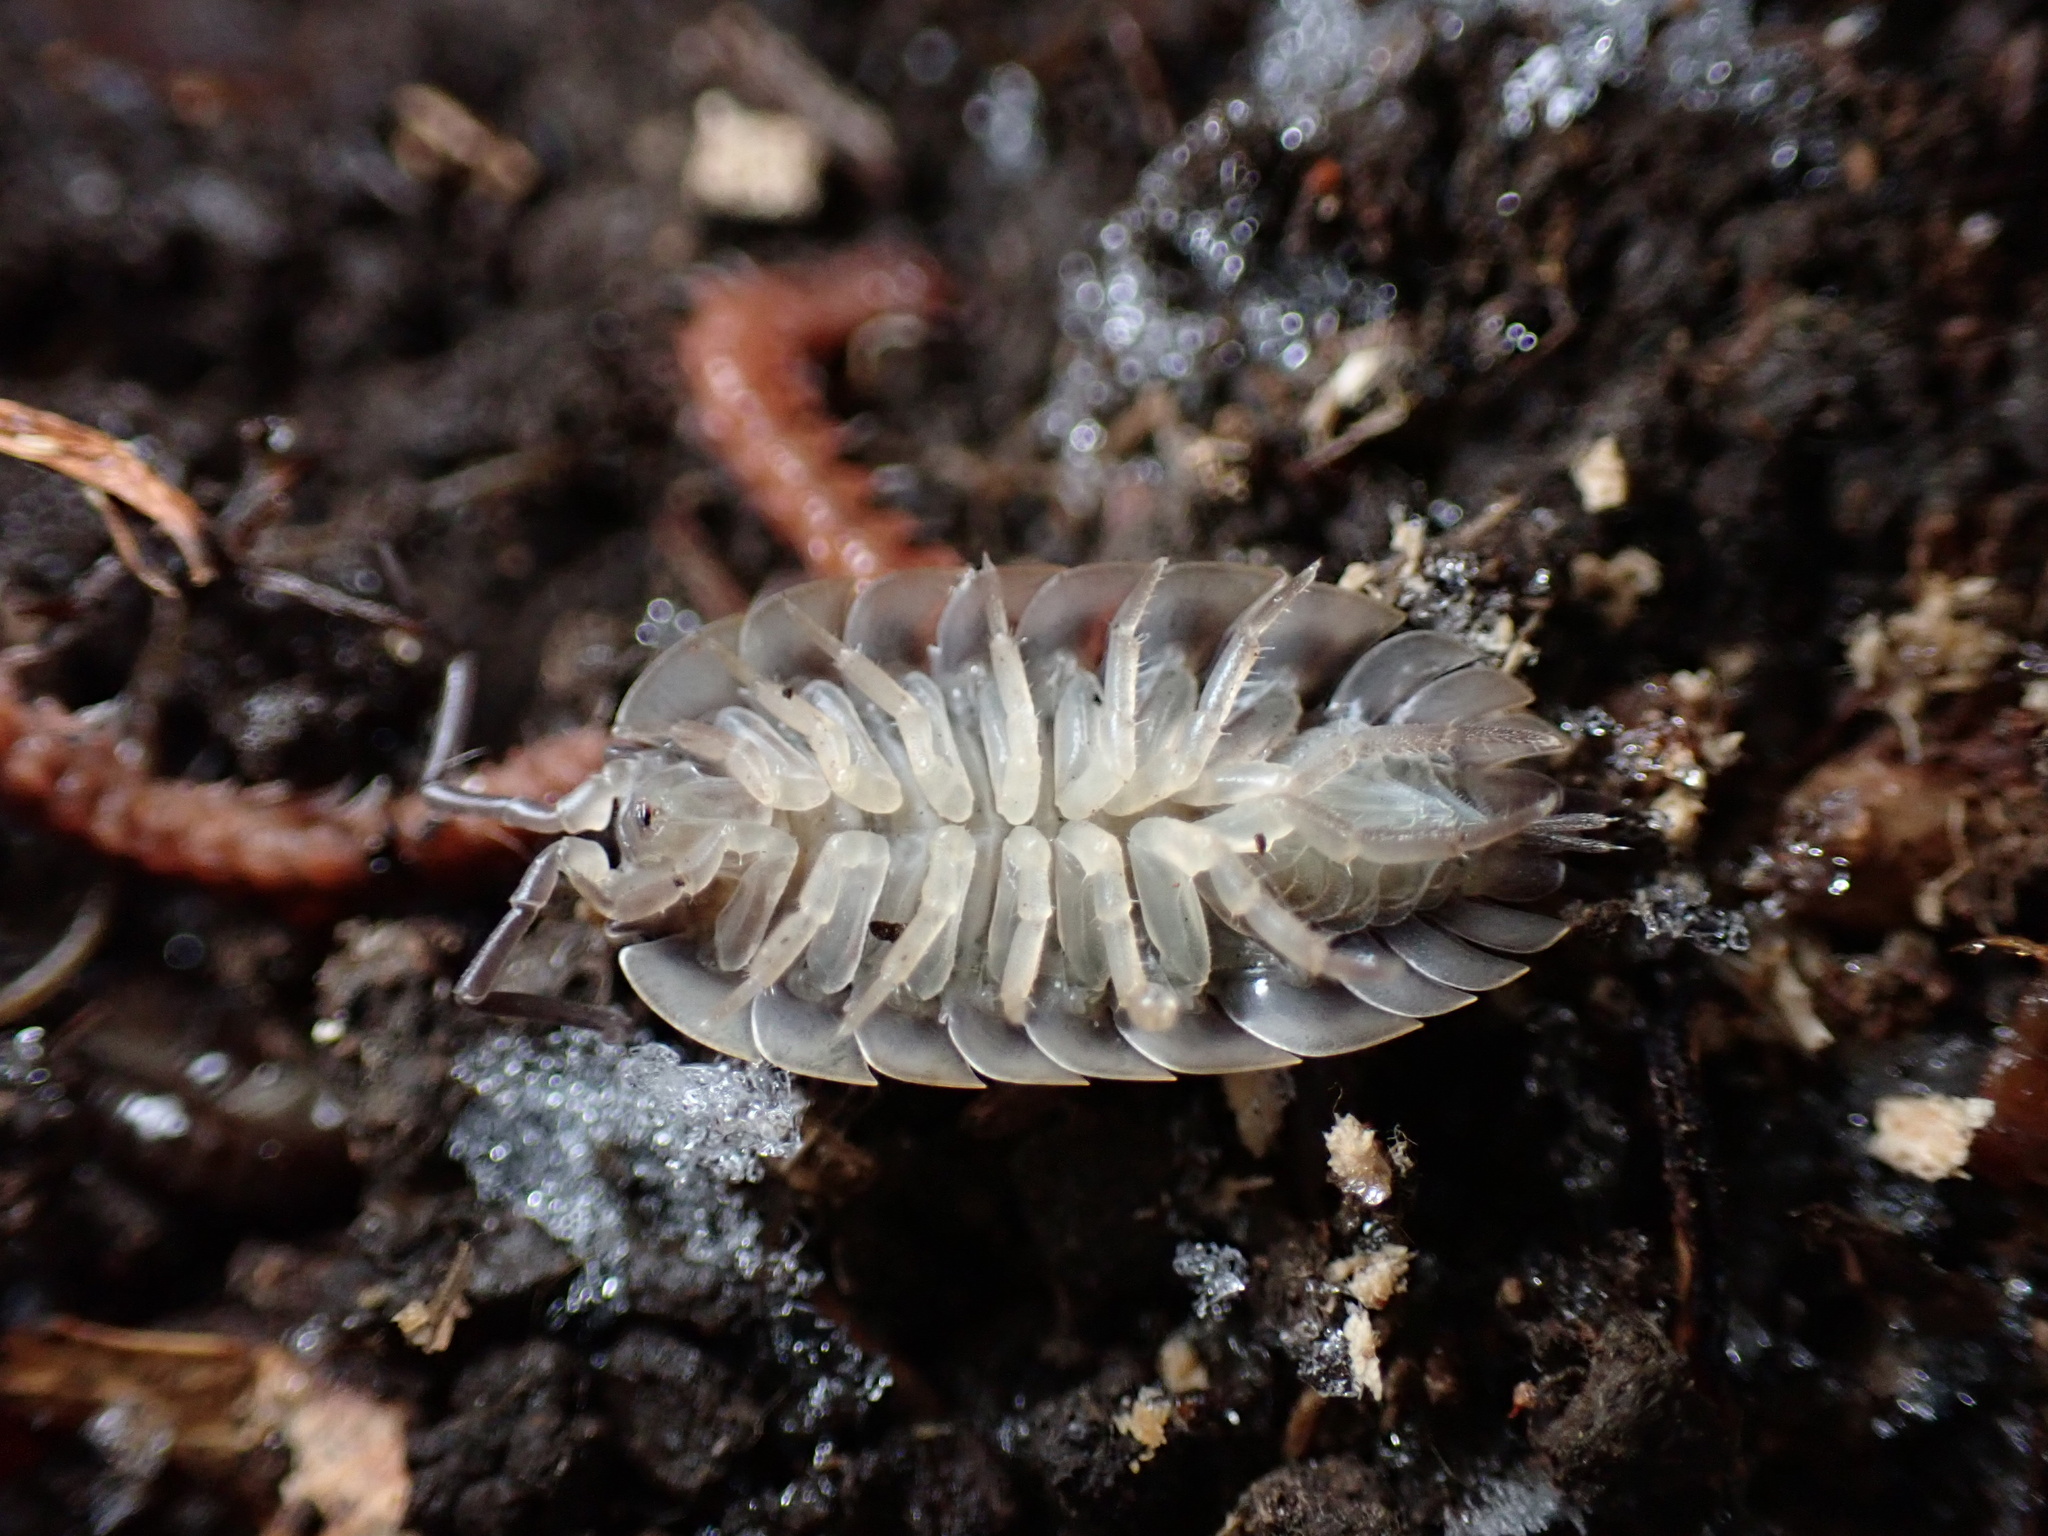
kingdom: Animalia
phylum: Arthropoda
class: Malacostraca
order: Isopoda
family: Oniscidae
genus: Oniscus
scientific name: Oniscus asellus
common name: Common shiny woodlouse
